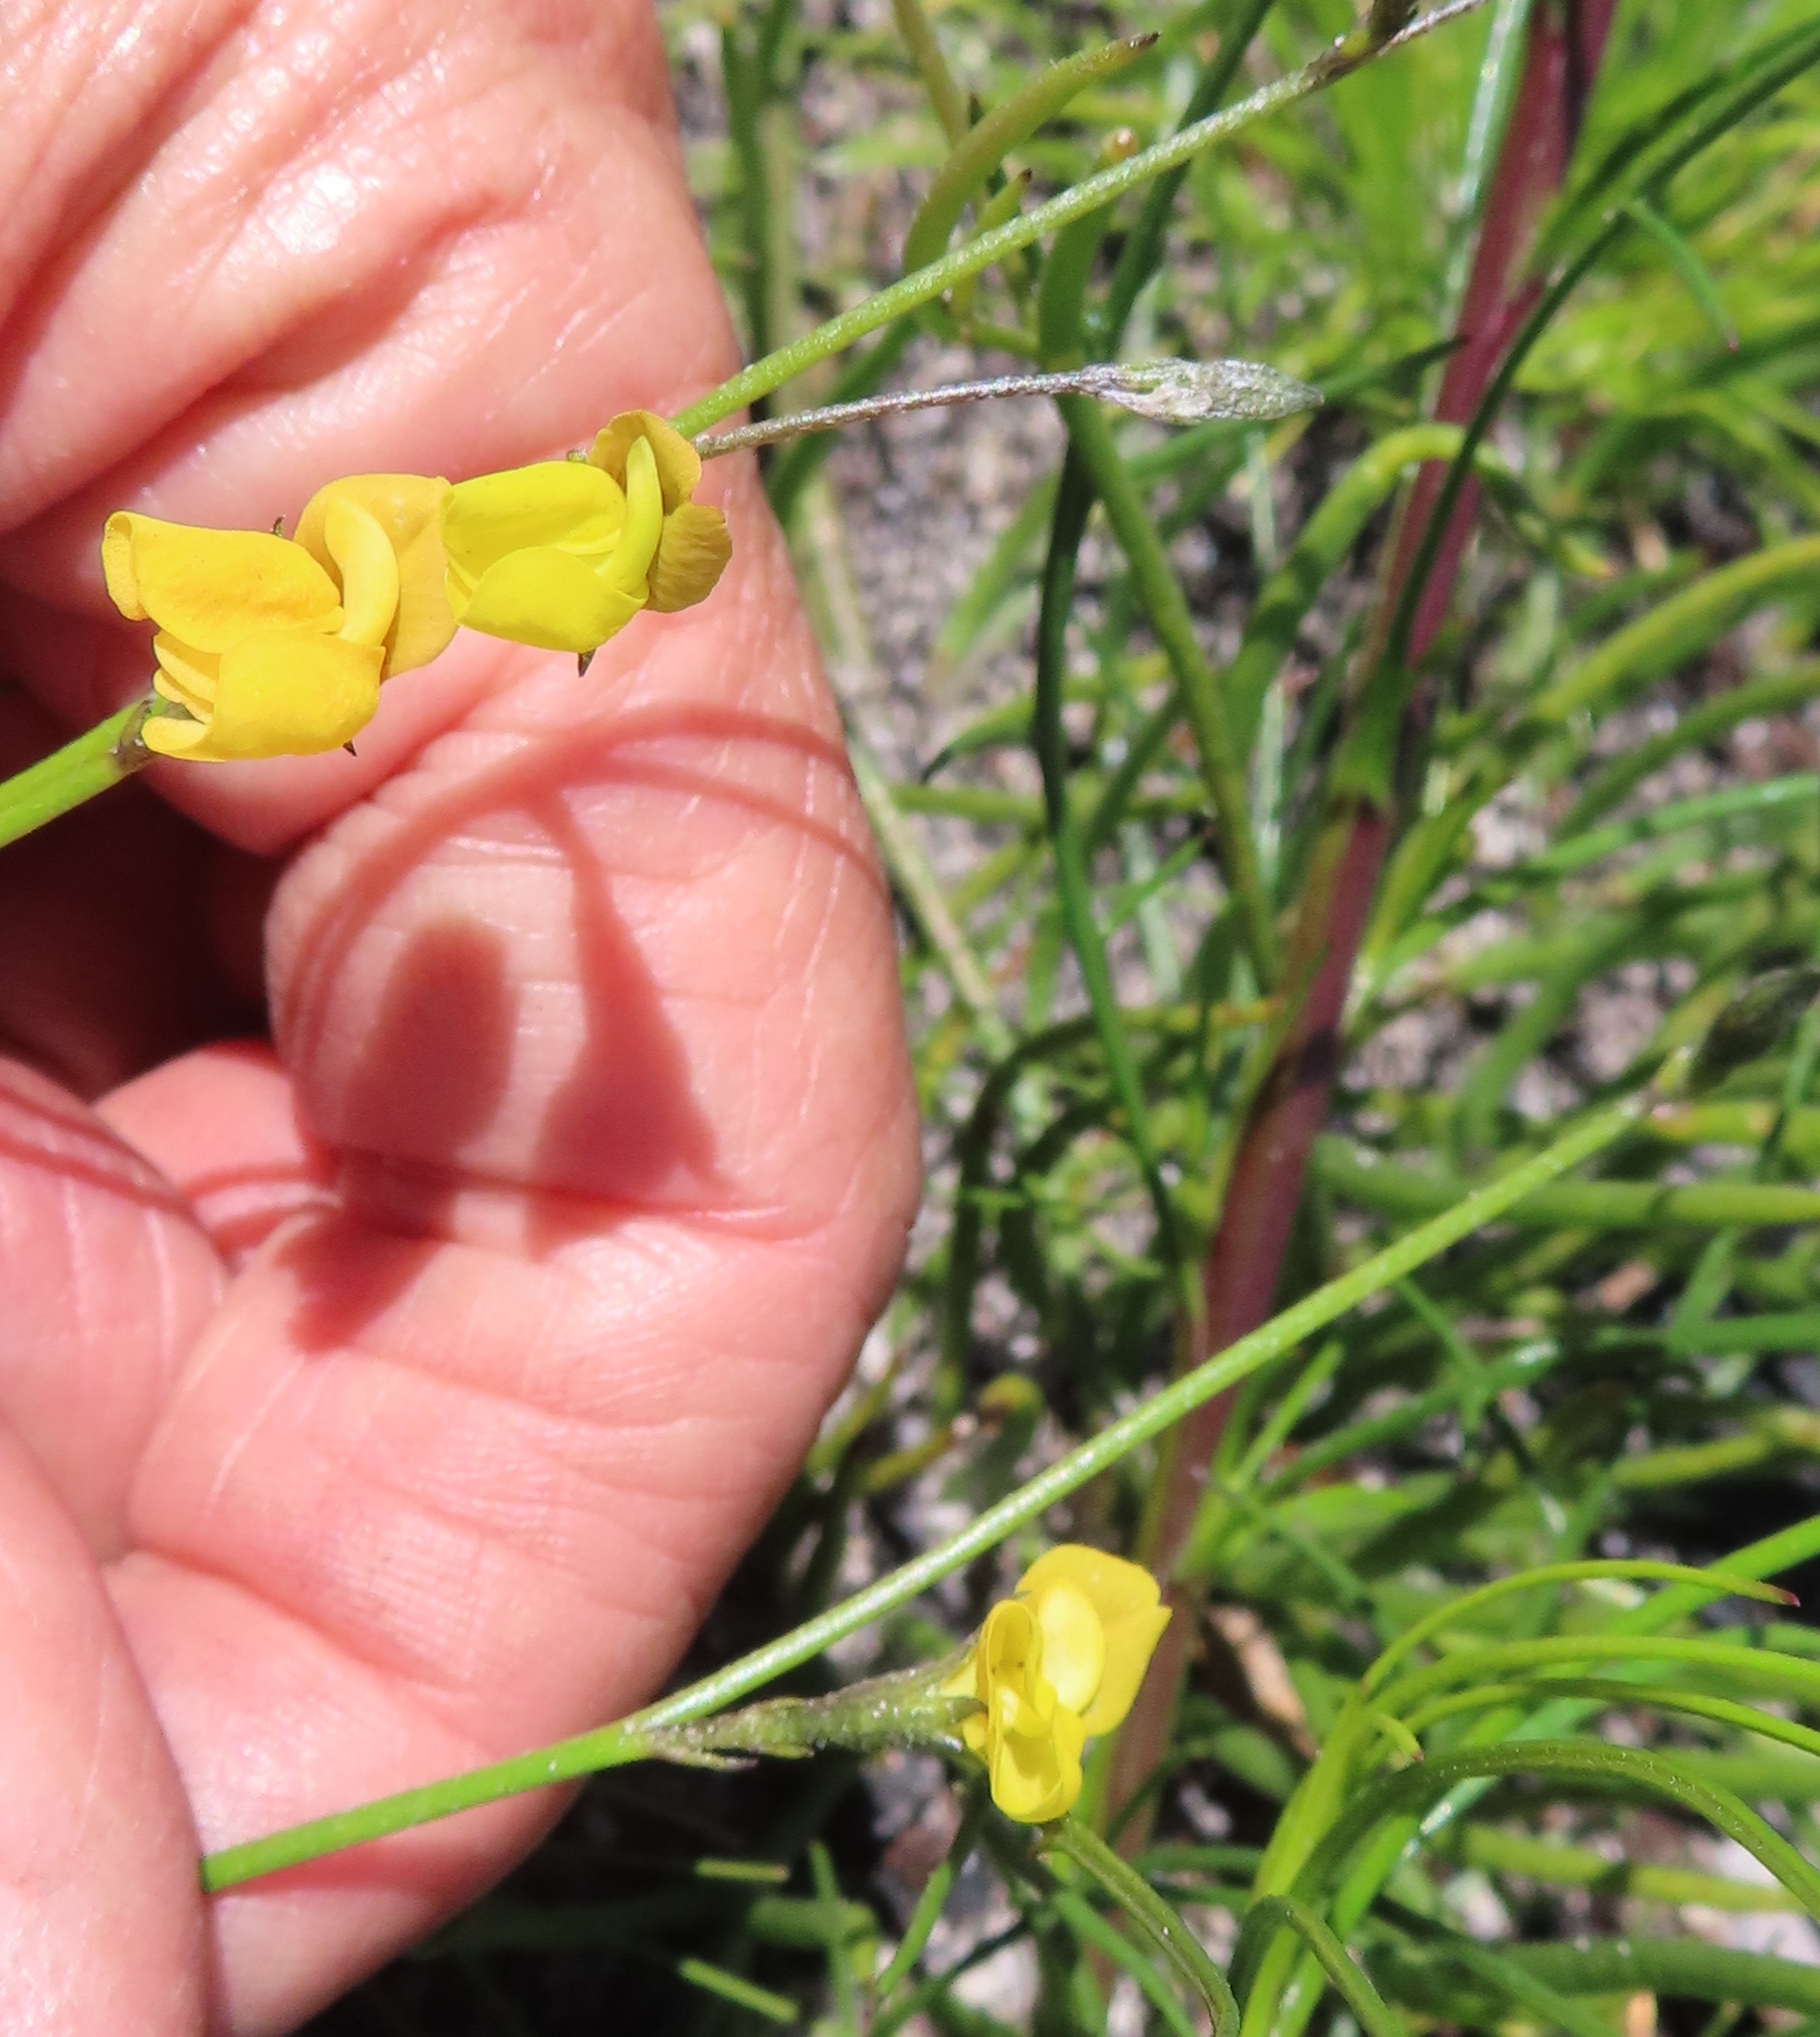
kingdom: Plantae
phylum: Tracheophyta
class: Magnoliopsida
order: Fabales
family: Fabaceae
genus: Lebeckia
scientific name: Lebeckia wrightii
